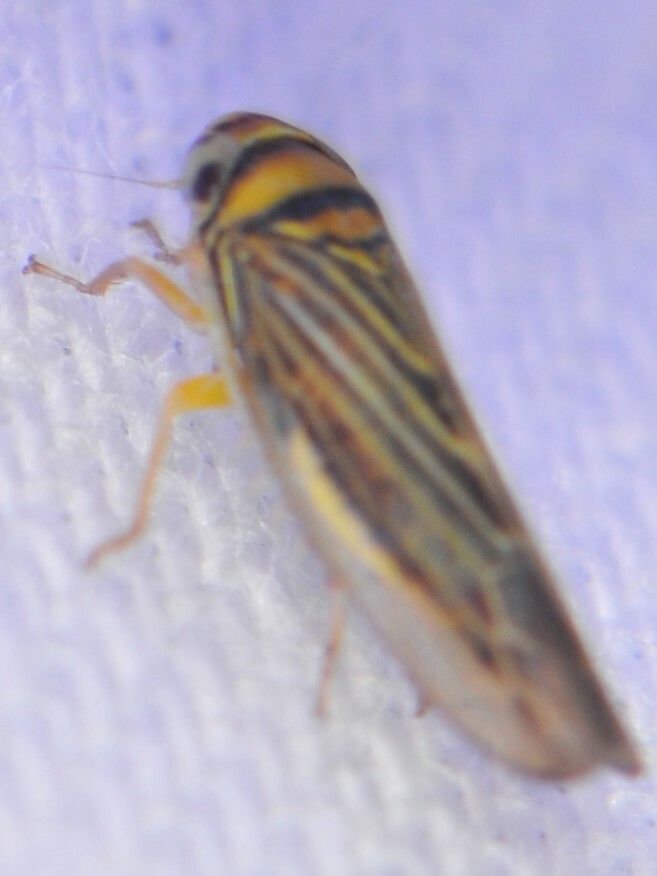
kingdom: Animalia
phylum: Arthropoda
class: Insecta
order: Hemiptera
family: Cicadellidae
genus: Colladonus
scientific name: Colladonus
